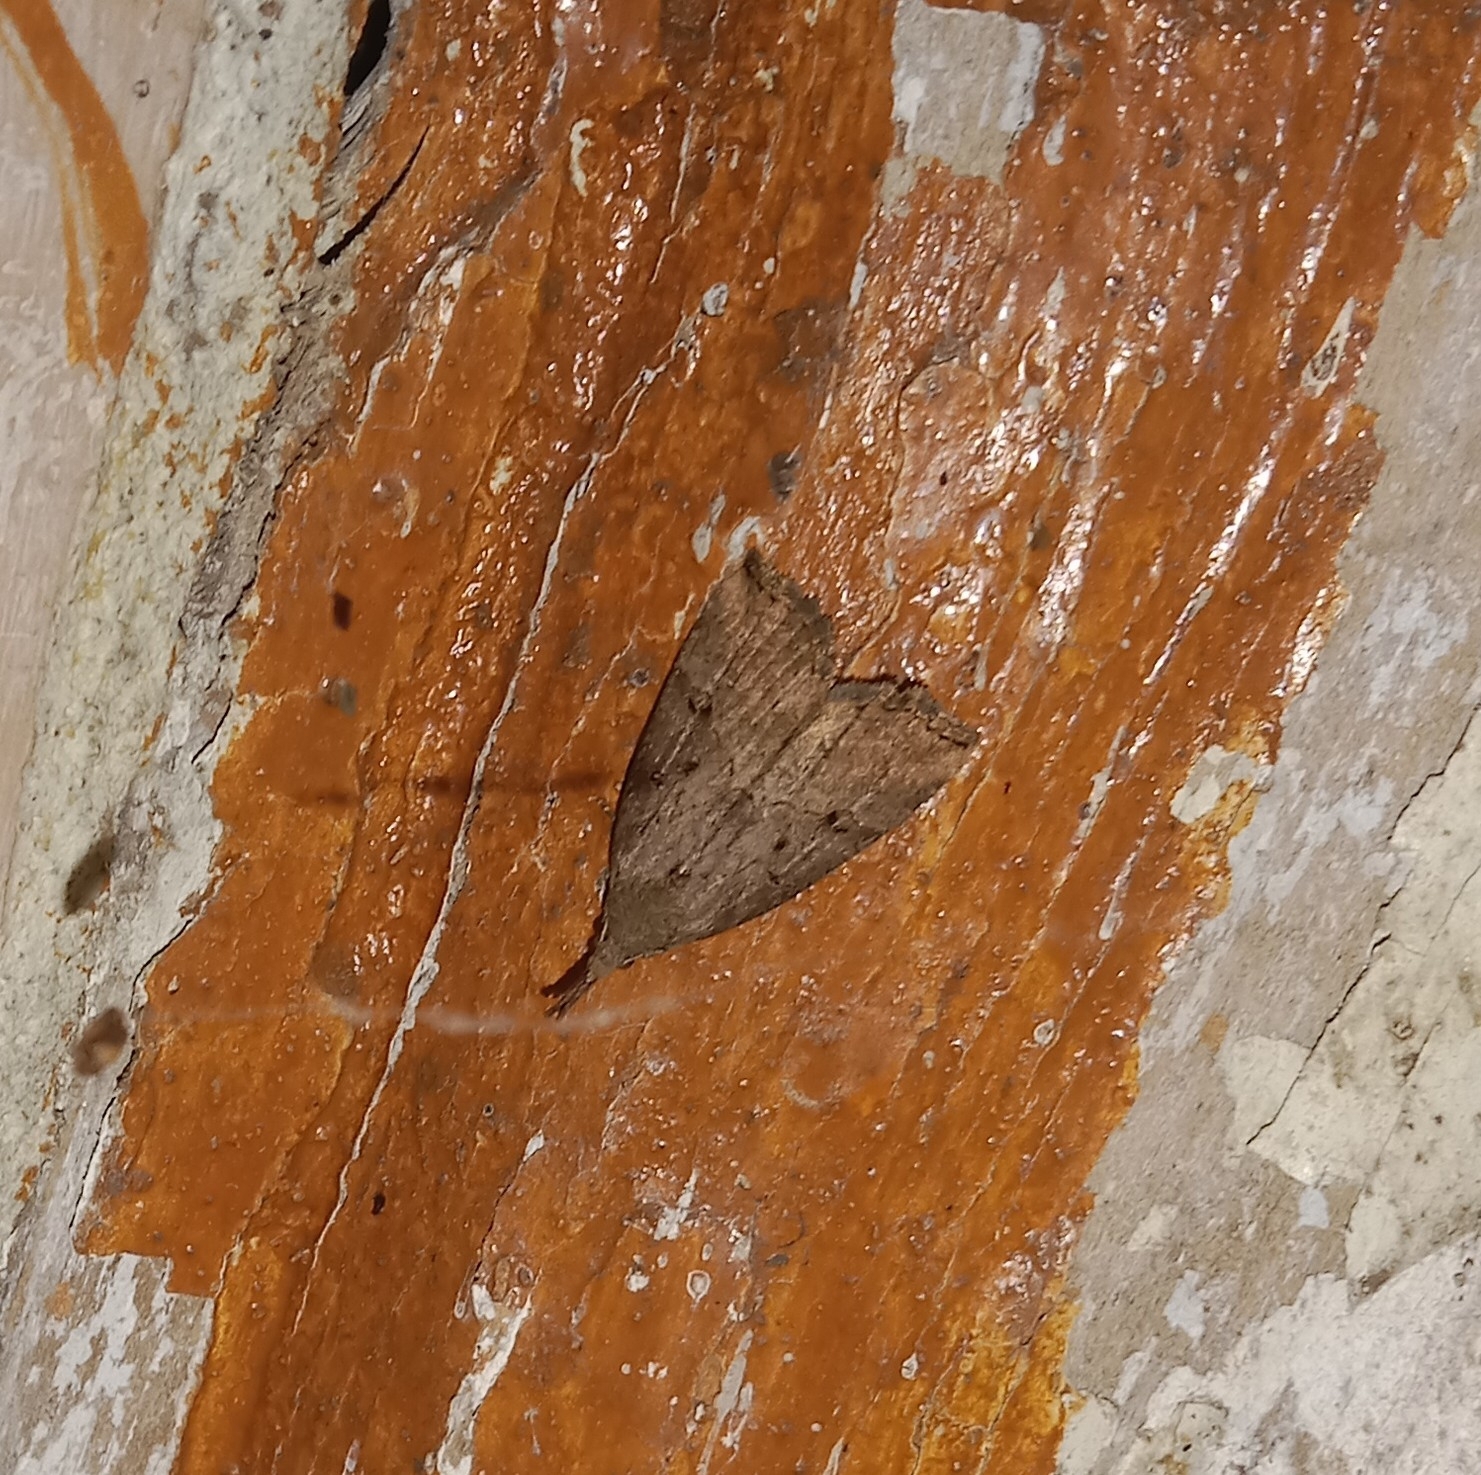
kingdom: Animalia
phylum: Arthropoda
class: Insecta
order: Lepidoptera
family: Erebidae
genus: Hypena
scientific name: Hypena rostralis
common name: Buttoned snout
